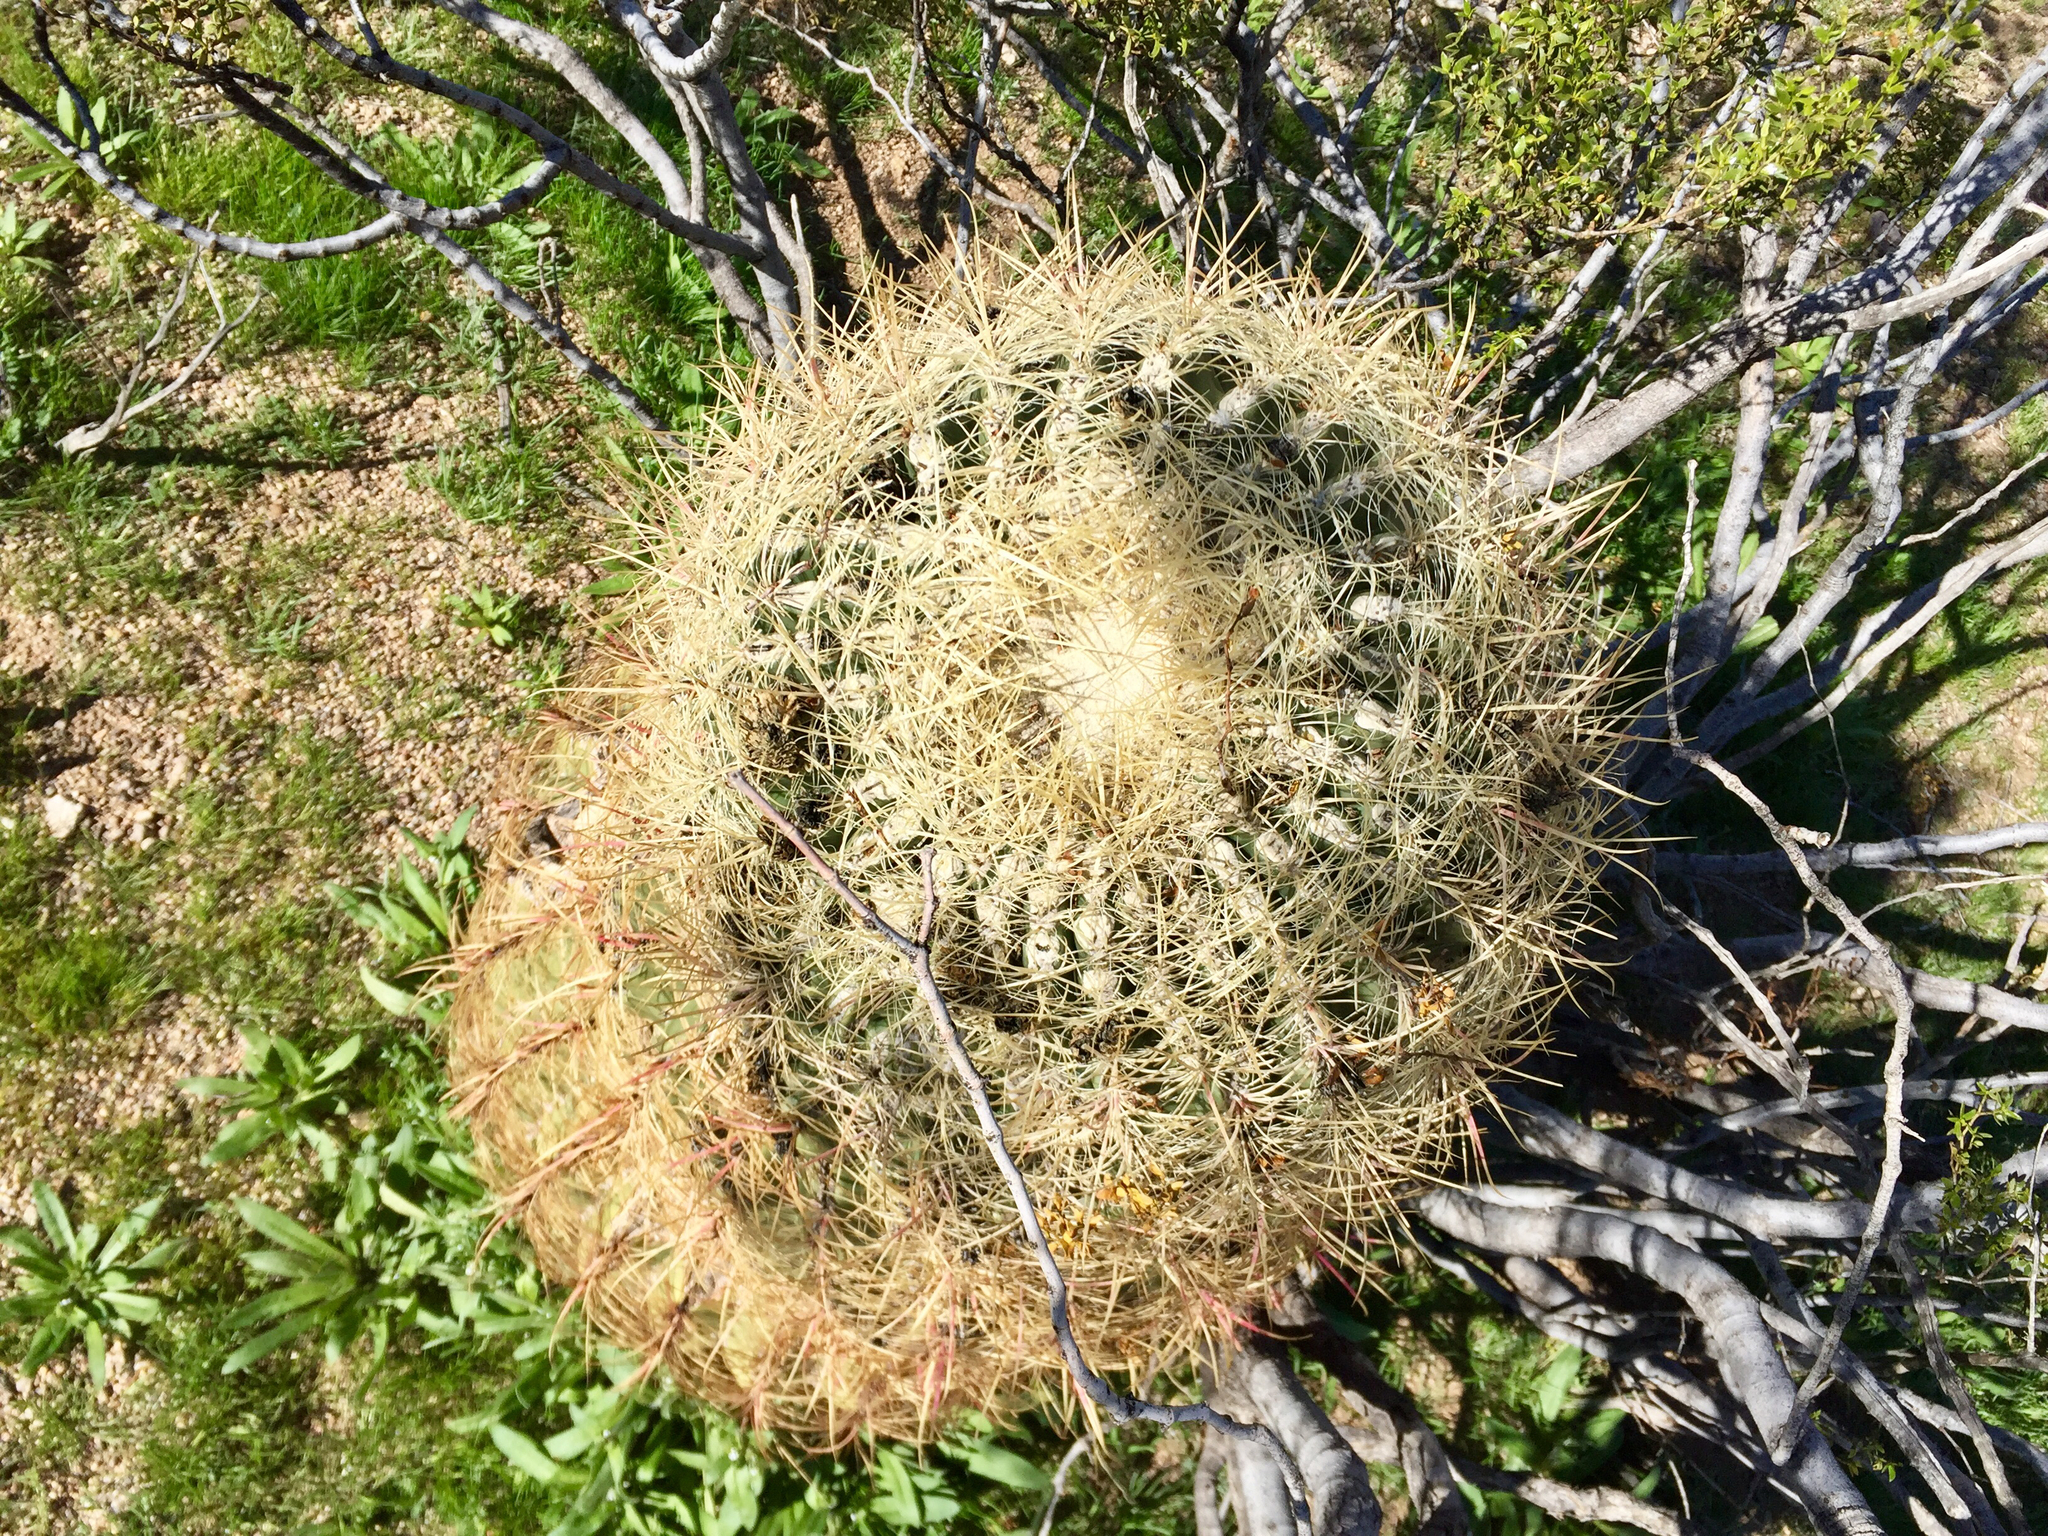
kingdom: Plantae
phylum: Tracheophyta
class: Magnoliopsida
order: Caryophyllales
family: Cactaceae
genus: Ferocactus
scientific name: Ferocactus cylindraceus
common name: California barrel cactus
